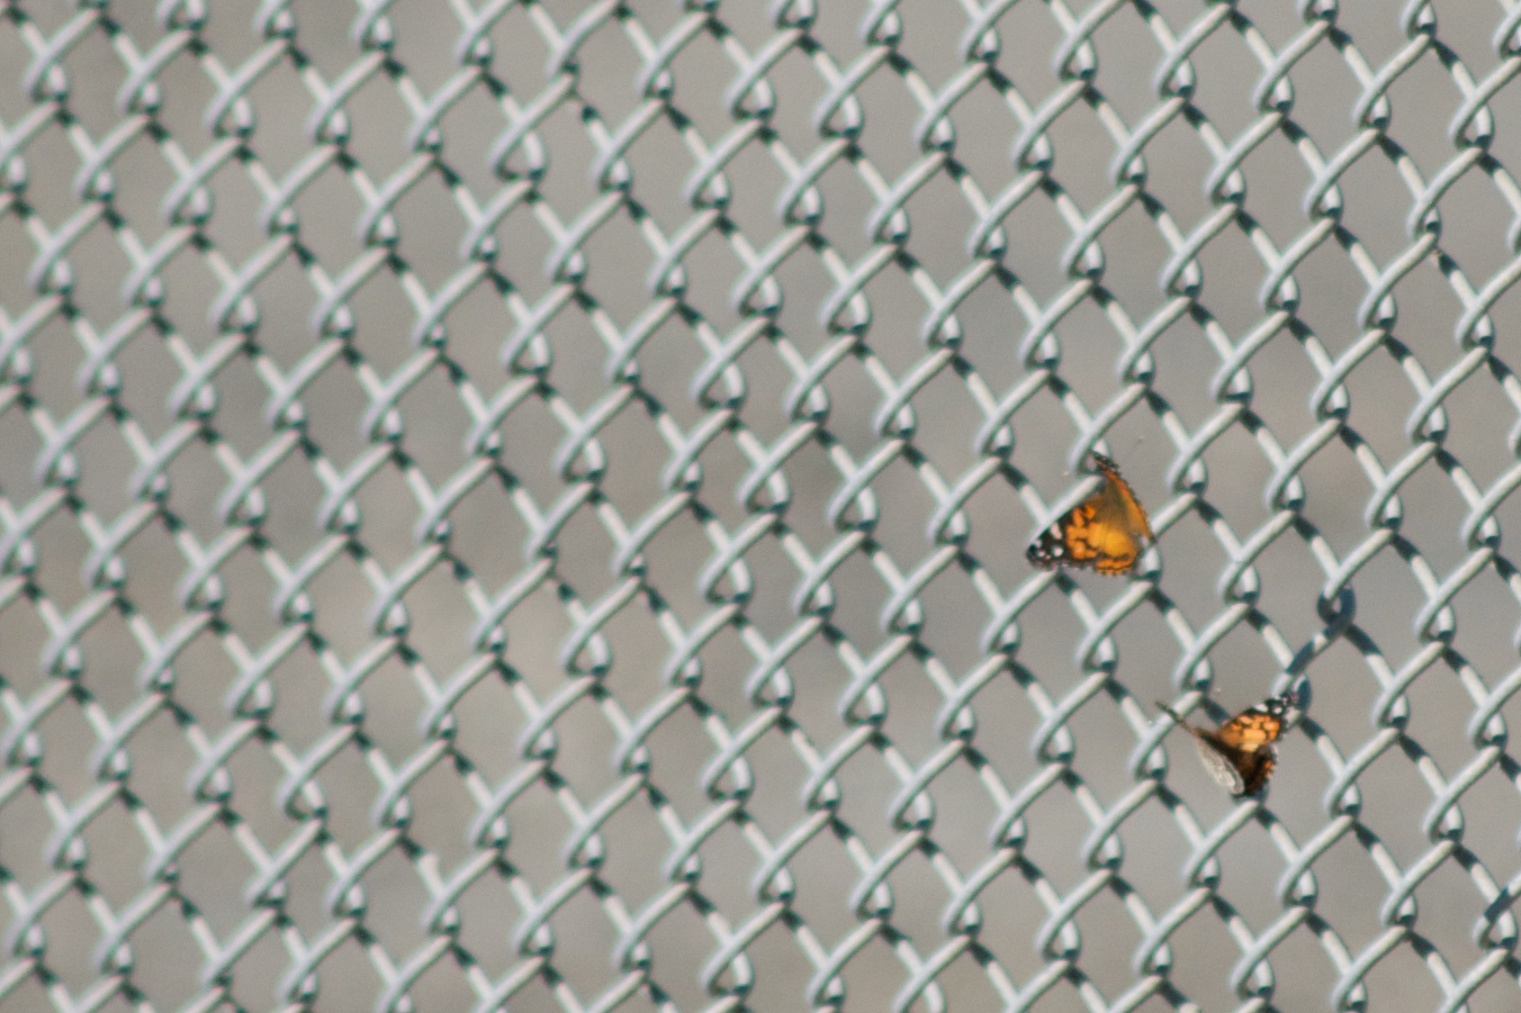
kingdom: Animalia
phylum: Arthropoda
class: Insecta
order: Lepidoptera
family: Nymphalidae
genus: Vanessa
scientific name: Vanessa virginiensis
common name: American lady
